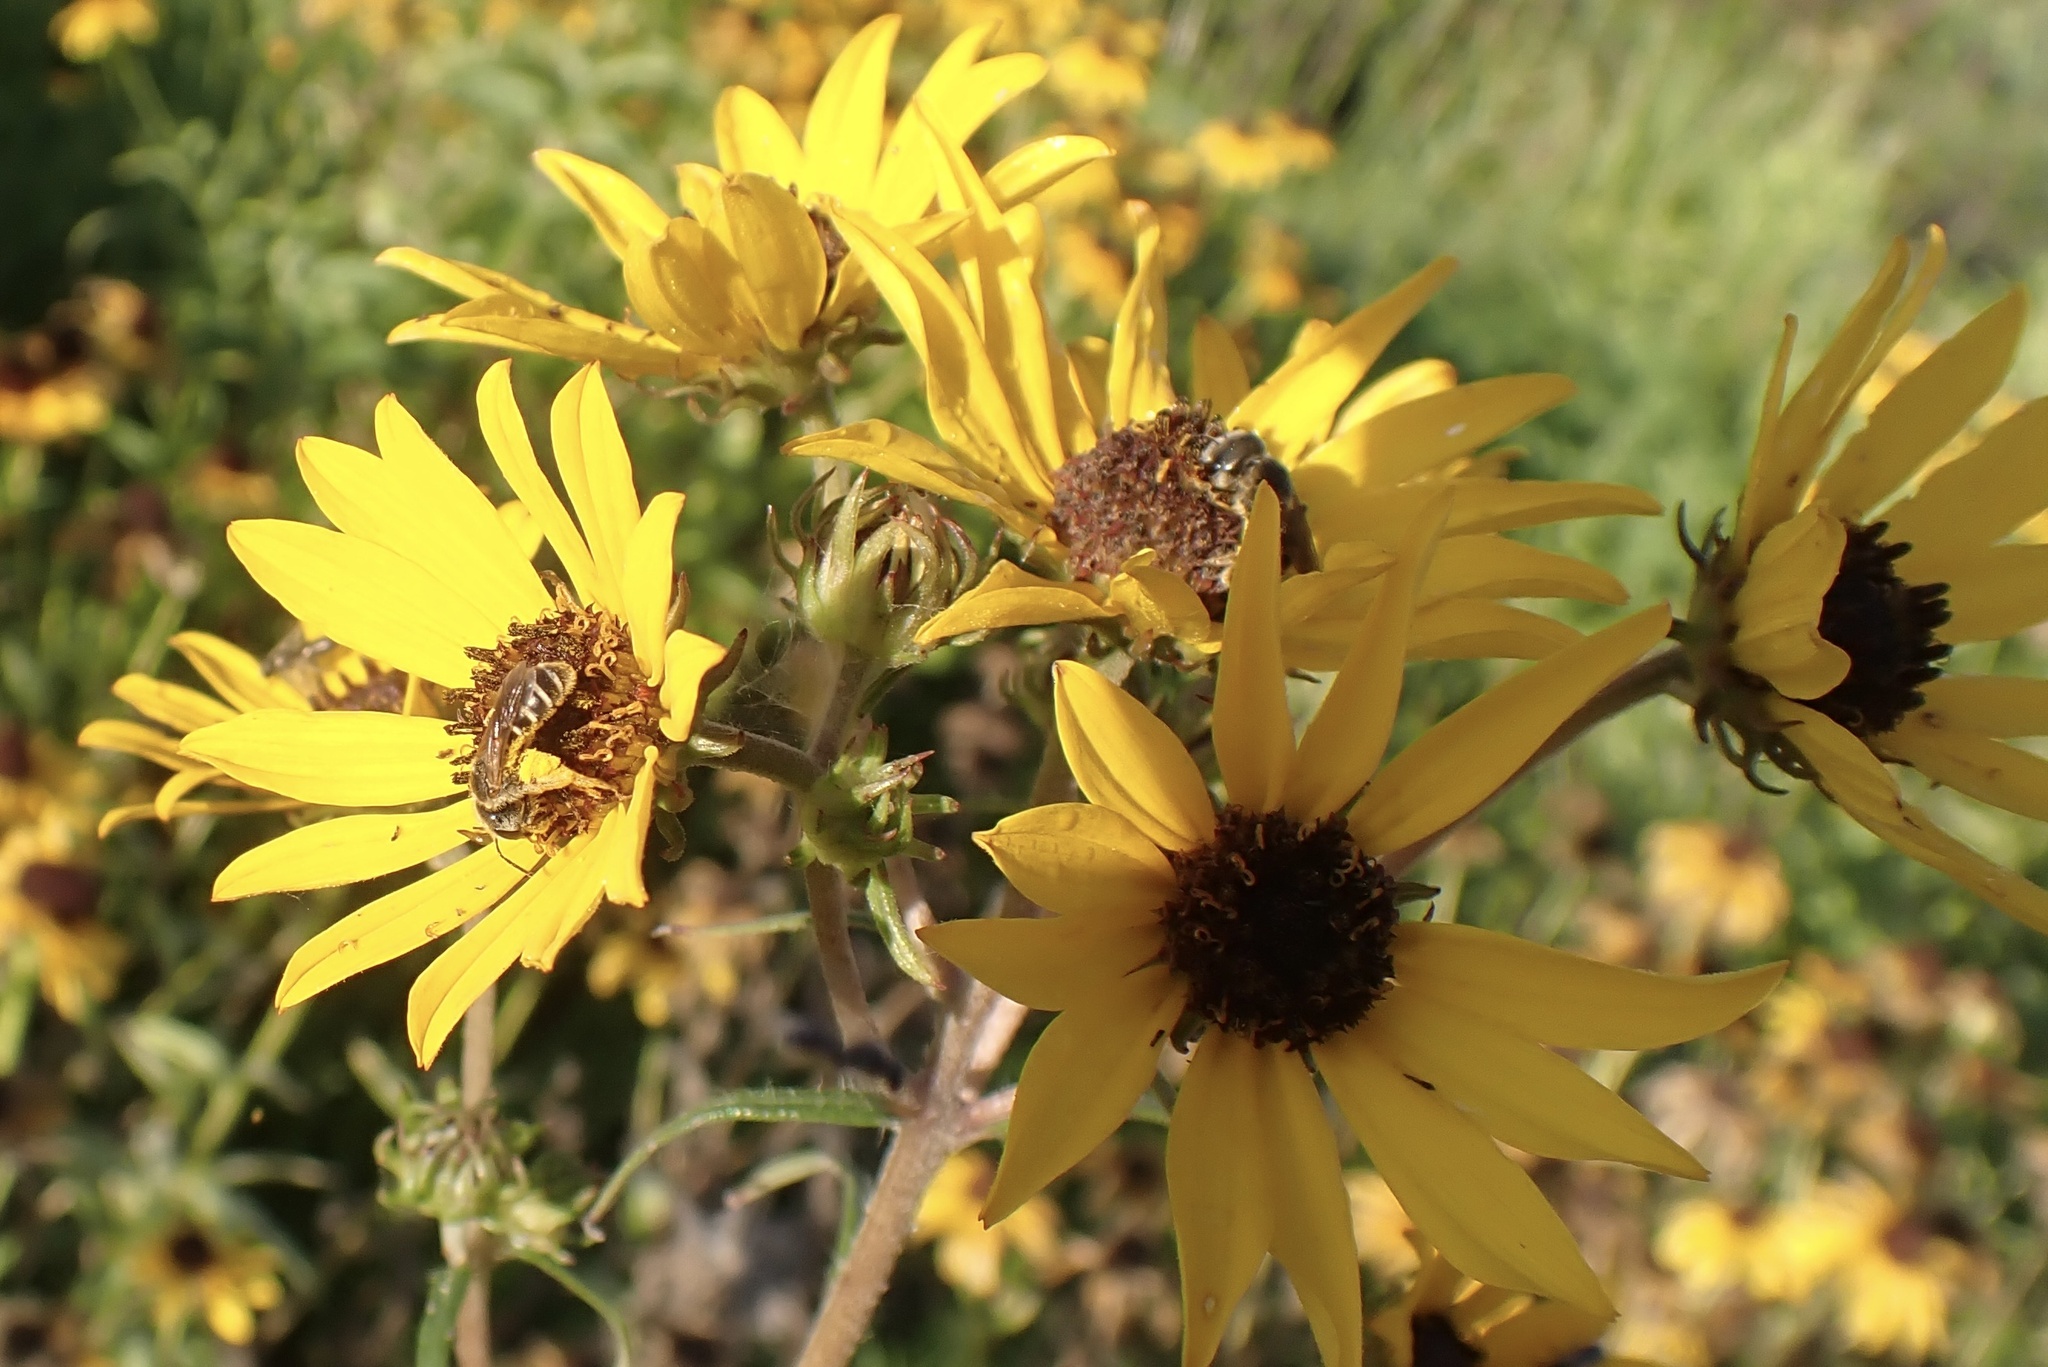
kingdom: Plantae
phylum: Tracheophyta
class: Magnoliopsida
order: Asterales
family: Asteraceae
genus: Helianthus
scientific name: Helianthus angustifolius
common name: Swamp sunflower
